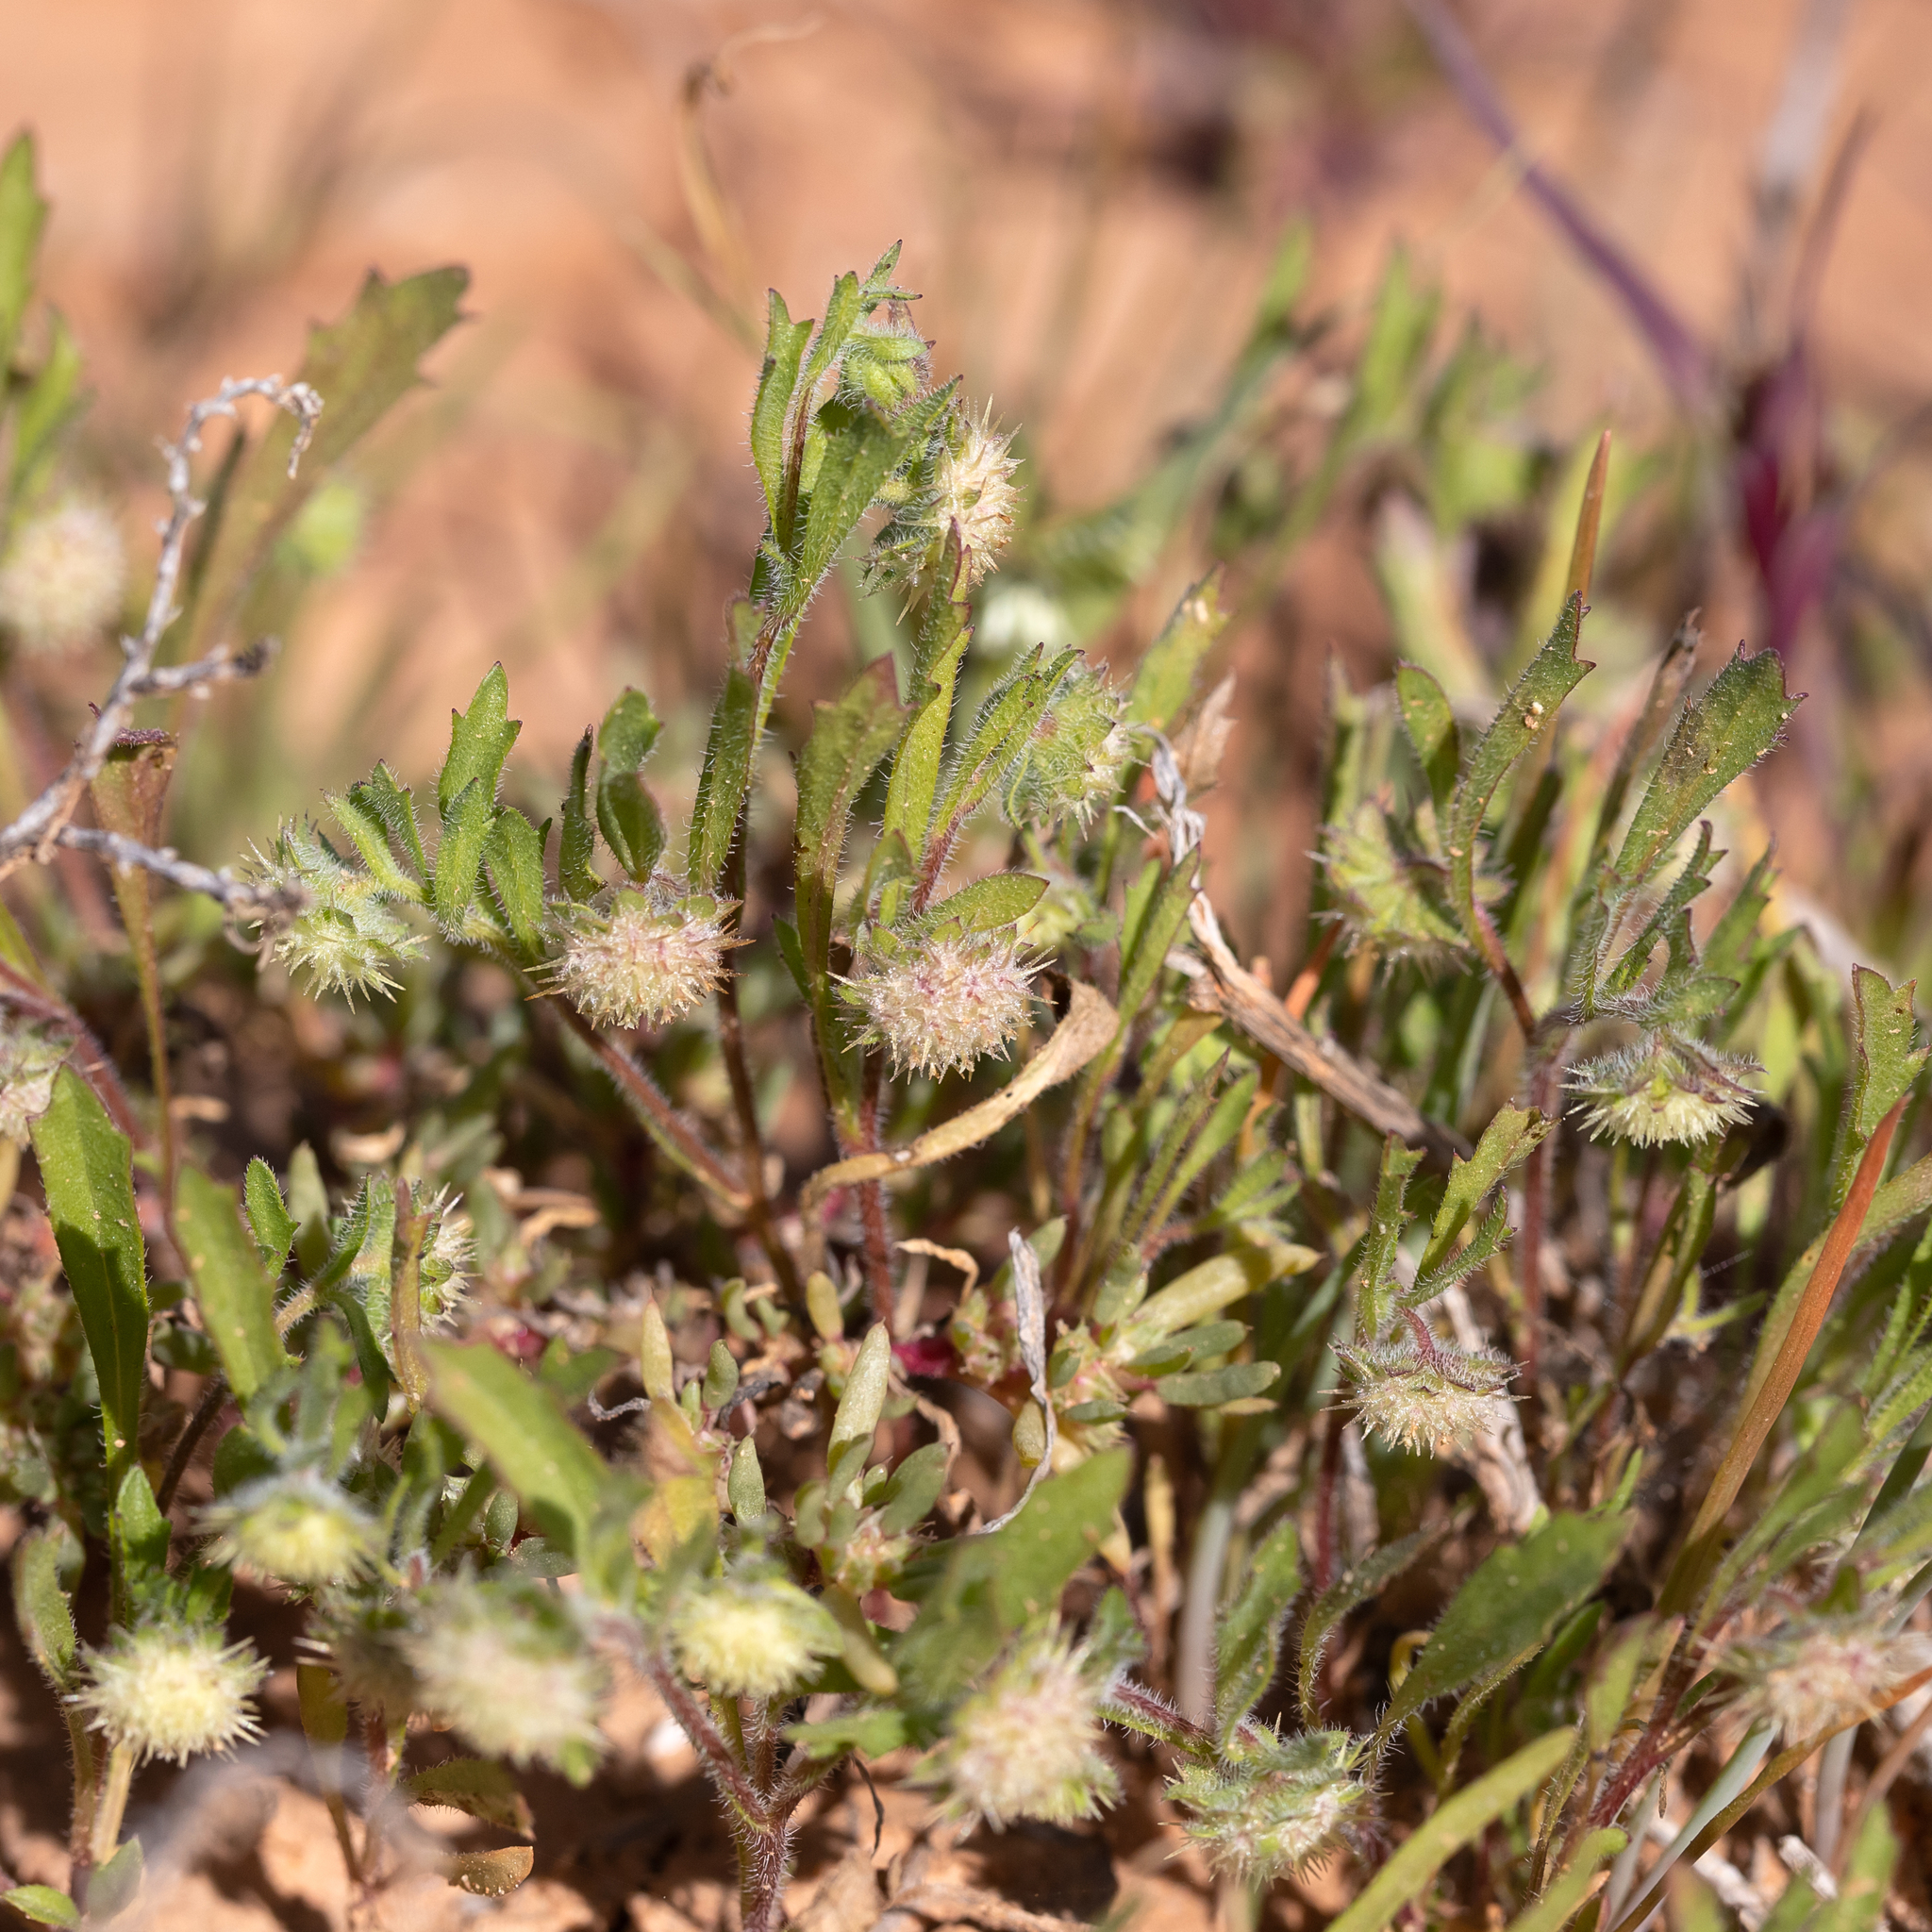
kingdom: Plantae
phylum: Tracheophyta
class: Magnoliopsida
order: Asterales
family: Asteraceae
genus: Calotis
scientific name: Calotis hispidula
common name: Bogan-flea
